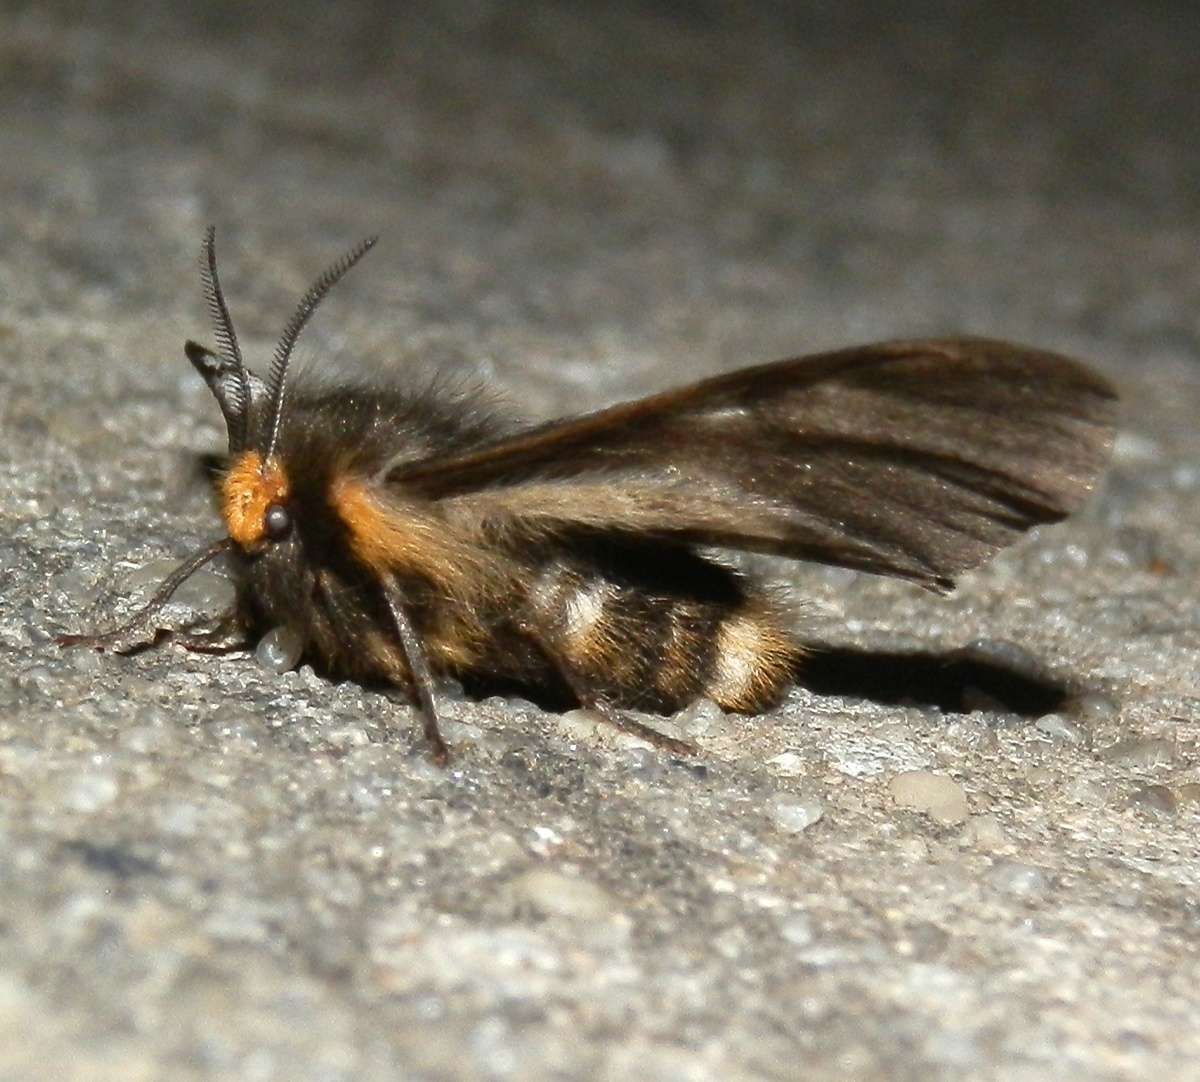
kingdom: Animalia
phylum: Arthropoda
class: Insecta
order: Lepidoptera
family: Anthelidae
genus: Nataxa
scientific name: Nataxa flavescens
